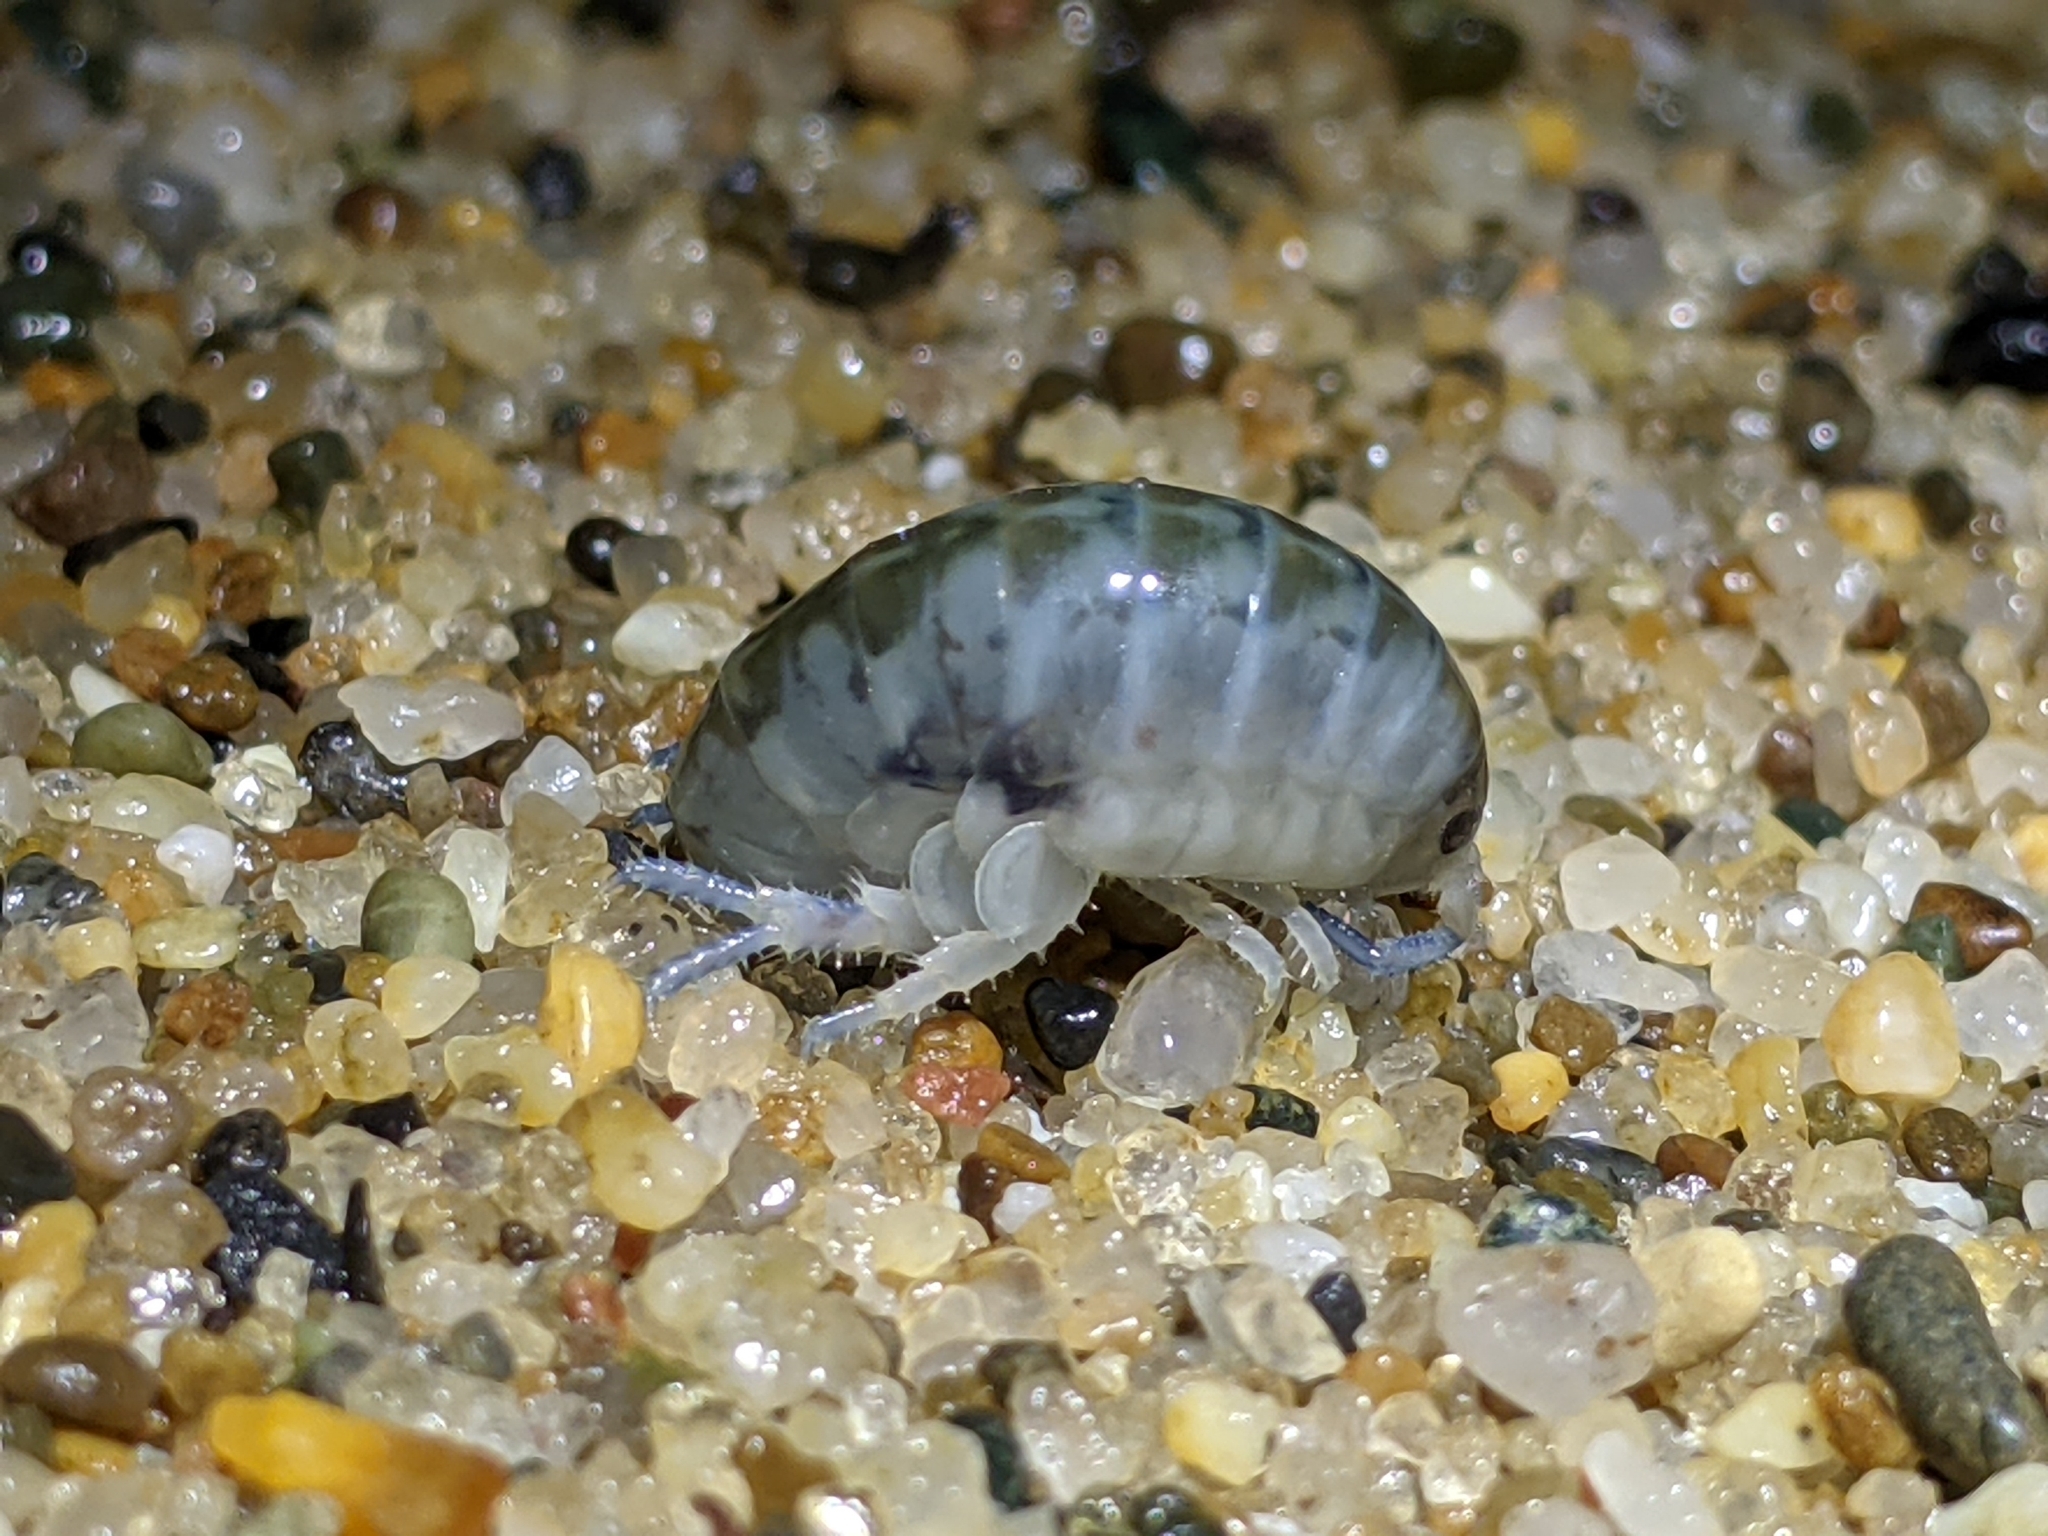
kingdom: Animalia
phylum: Arthropoda
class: Malacostraca
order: Amphipoda
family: Talitridae
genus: Megalorchestia
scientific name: Megalorchestia californiana
